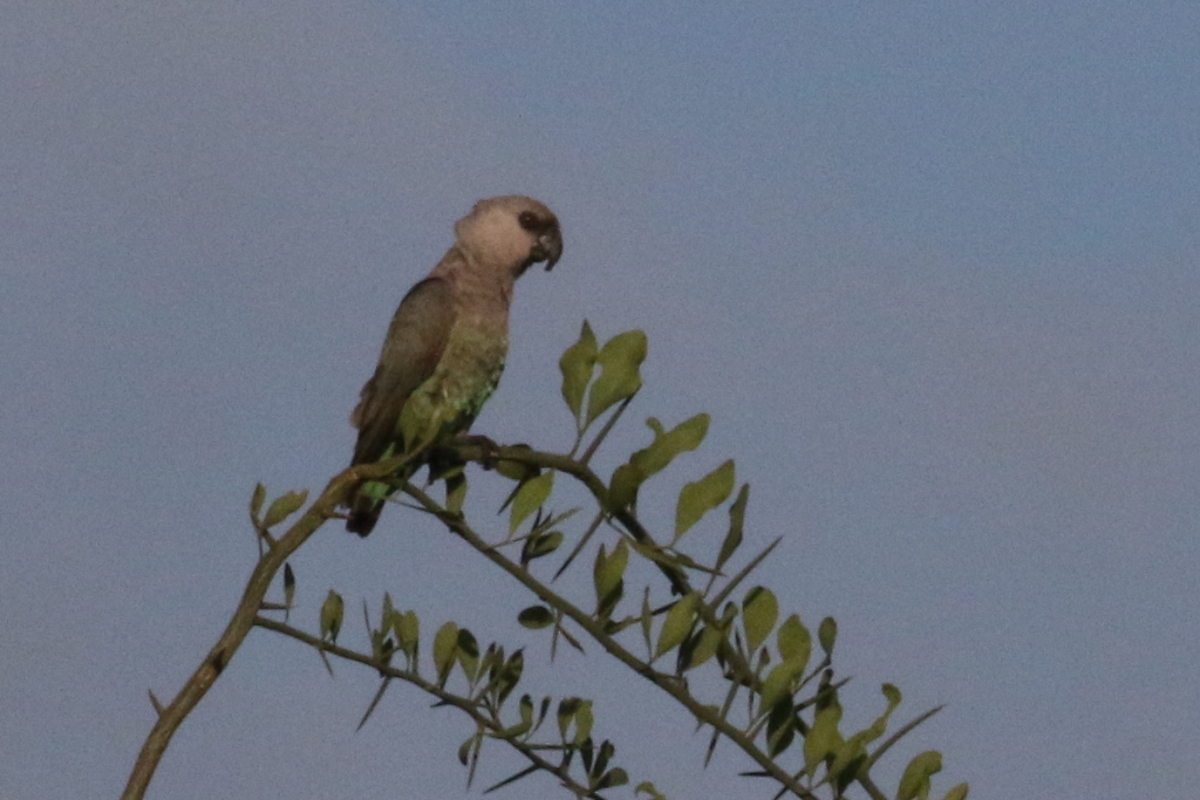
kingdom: Animalia
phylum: Chordata
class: Aves
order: Psittaciformes
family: Psittacidae
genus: Poicephalus
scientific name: Poicephalus rufiventris
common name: Red-bellied parrot
